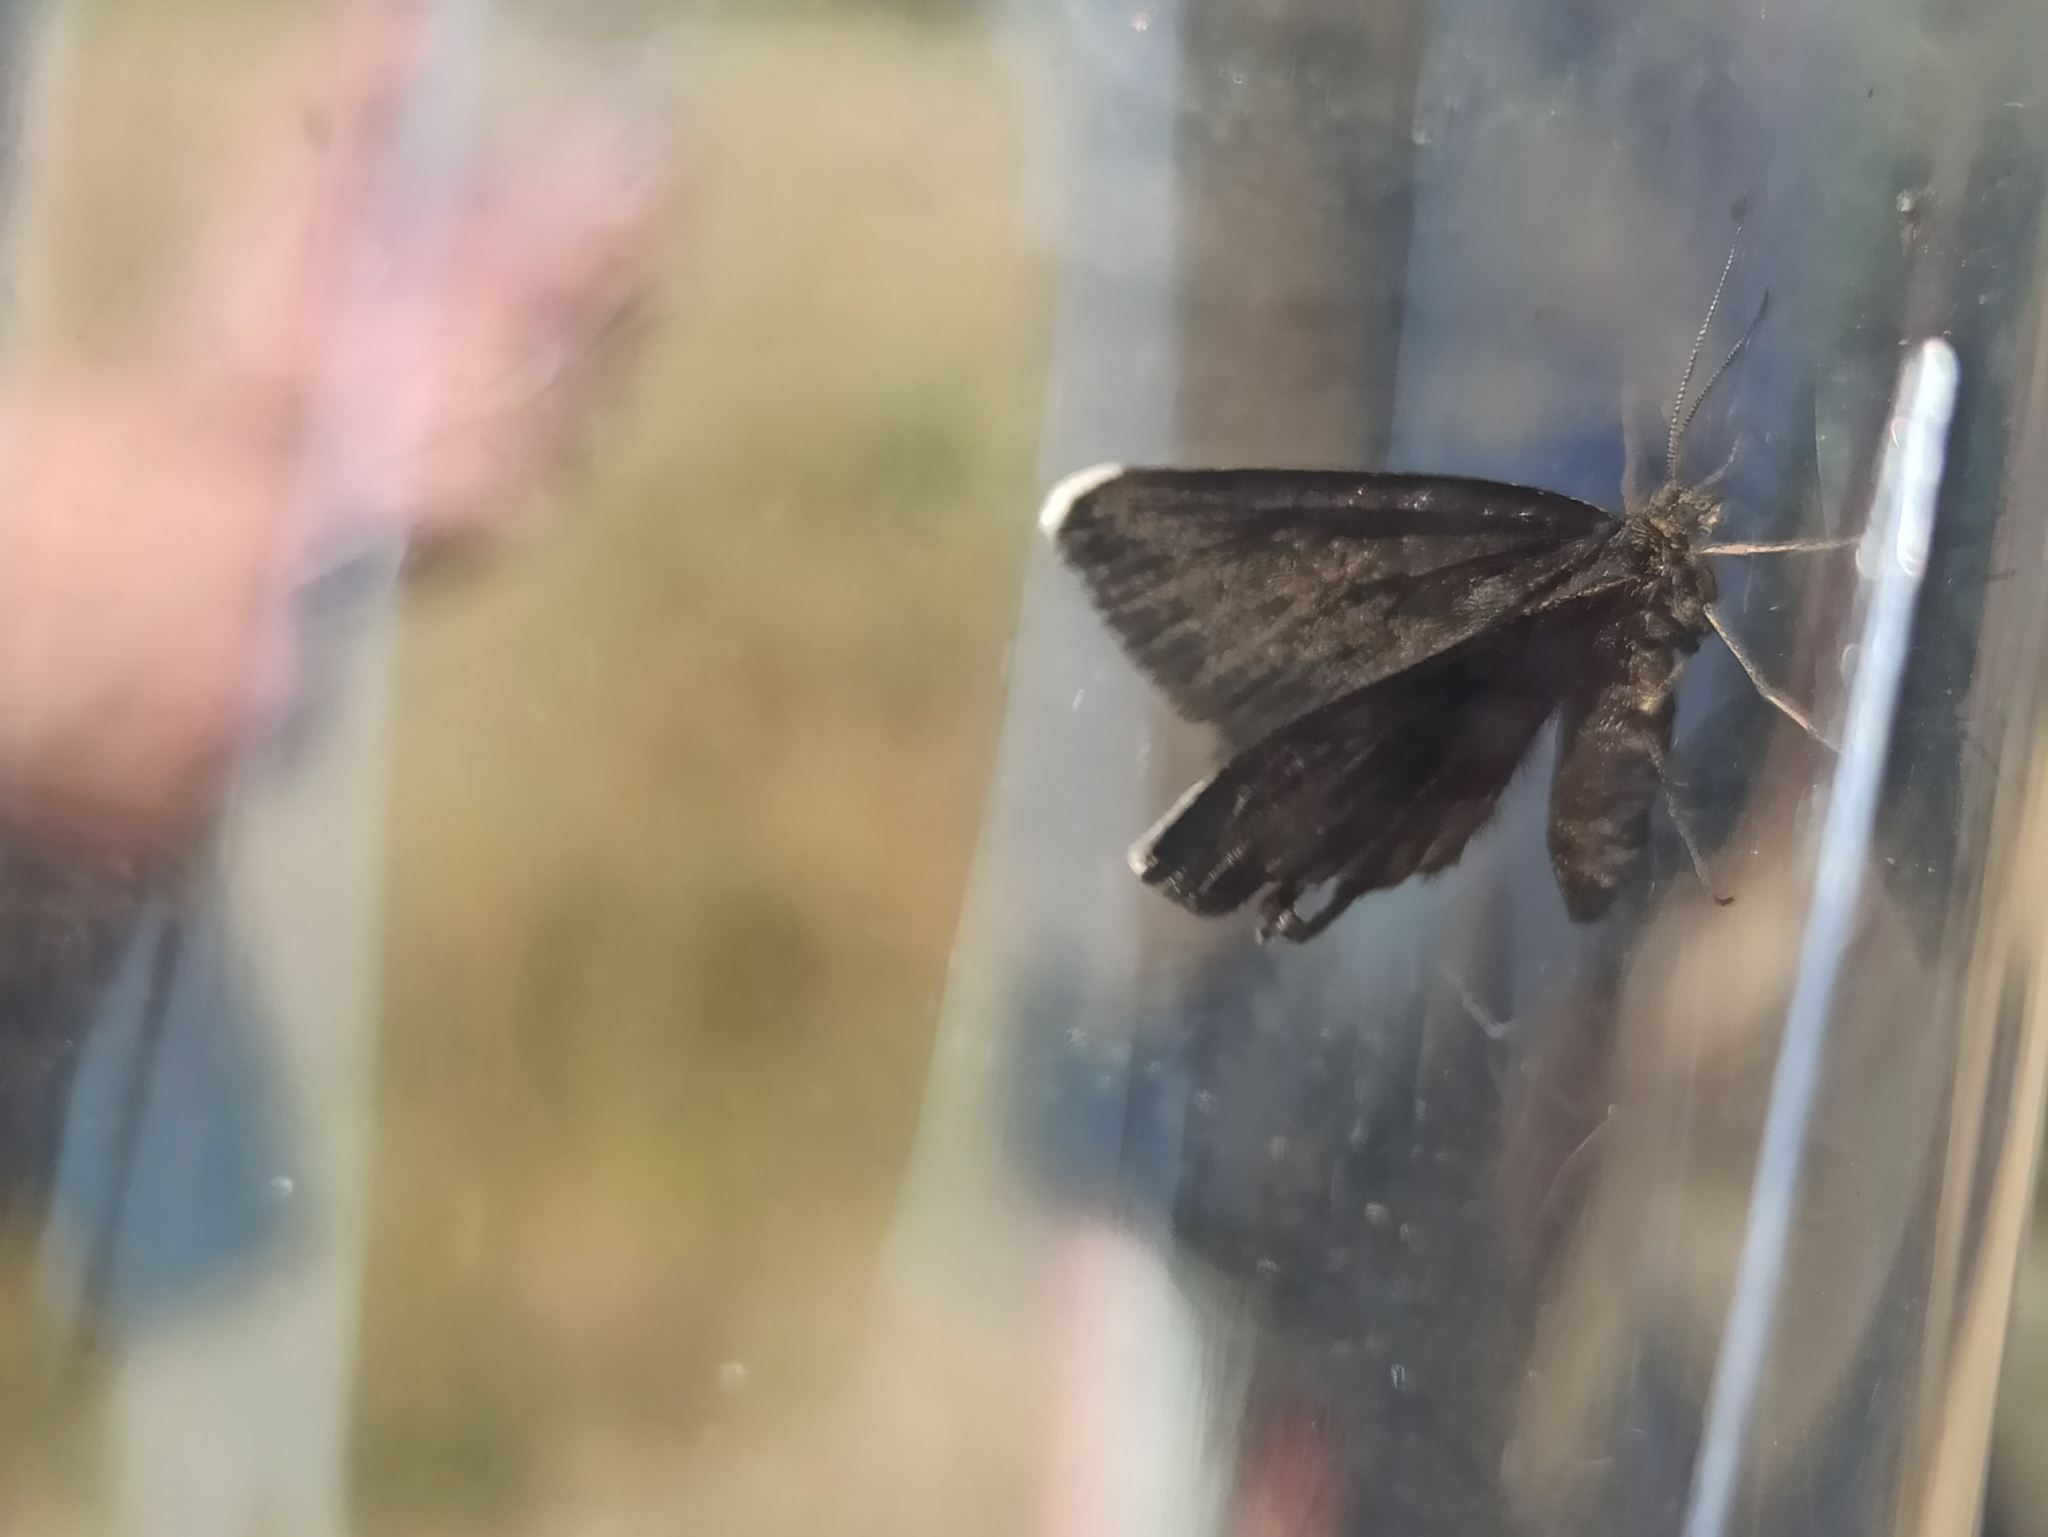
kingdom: Animalia
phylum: Arthropoda
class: Insecta
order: Lepidoptera
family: Geometridae
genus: Odezia
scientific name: Odezia atrata
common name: Chimney sweeper
